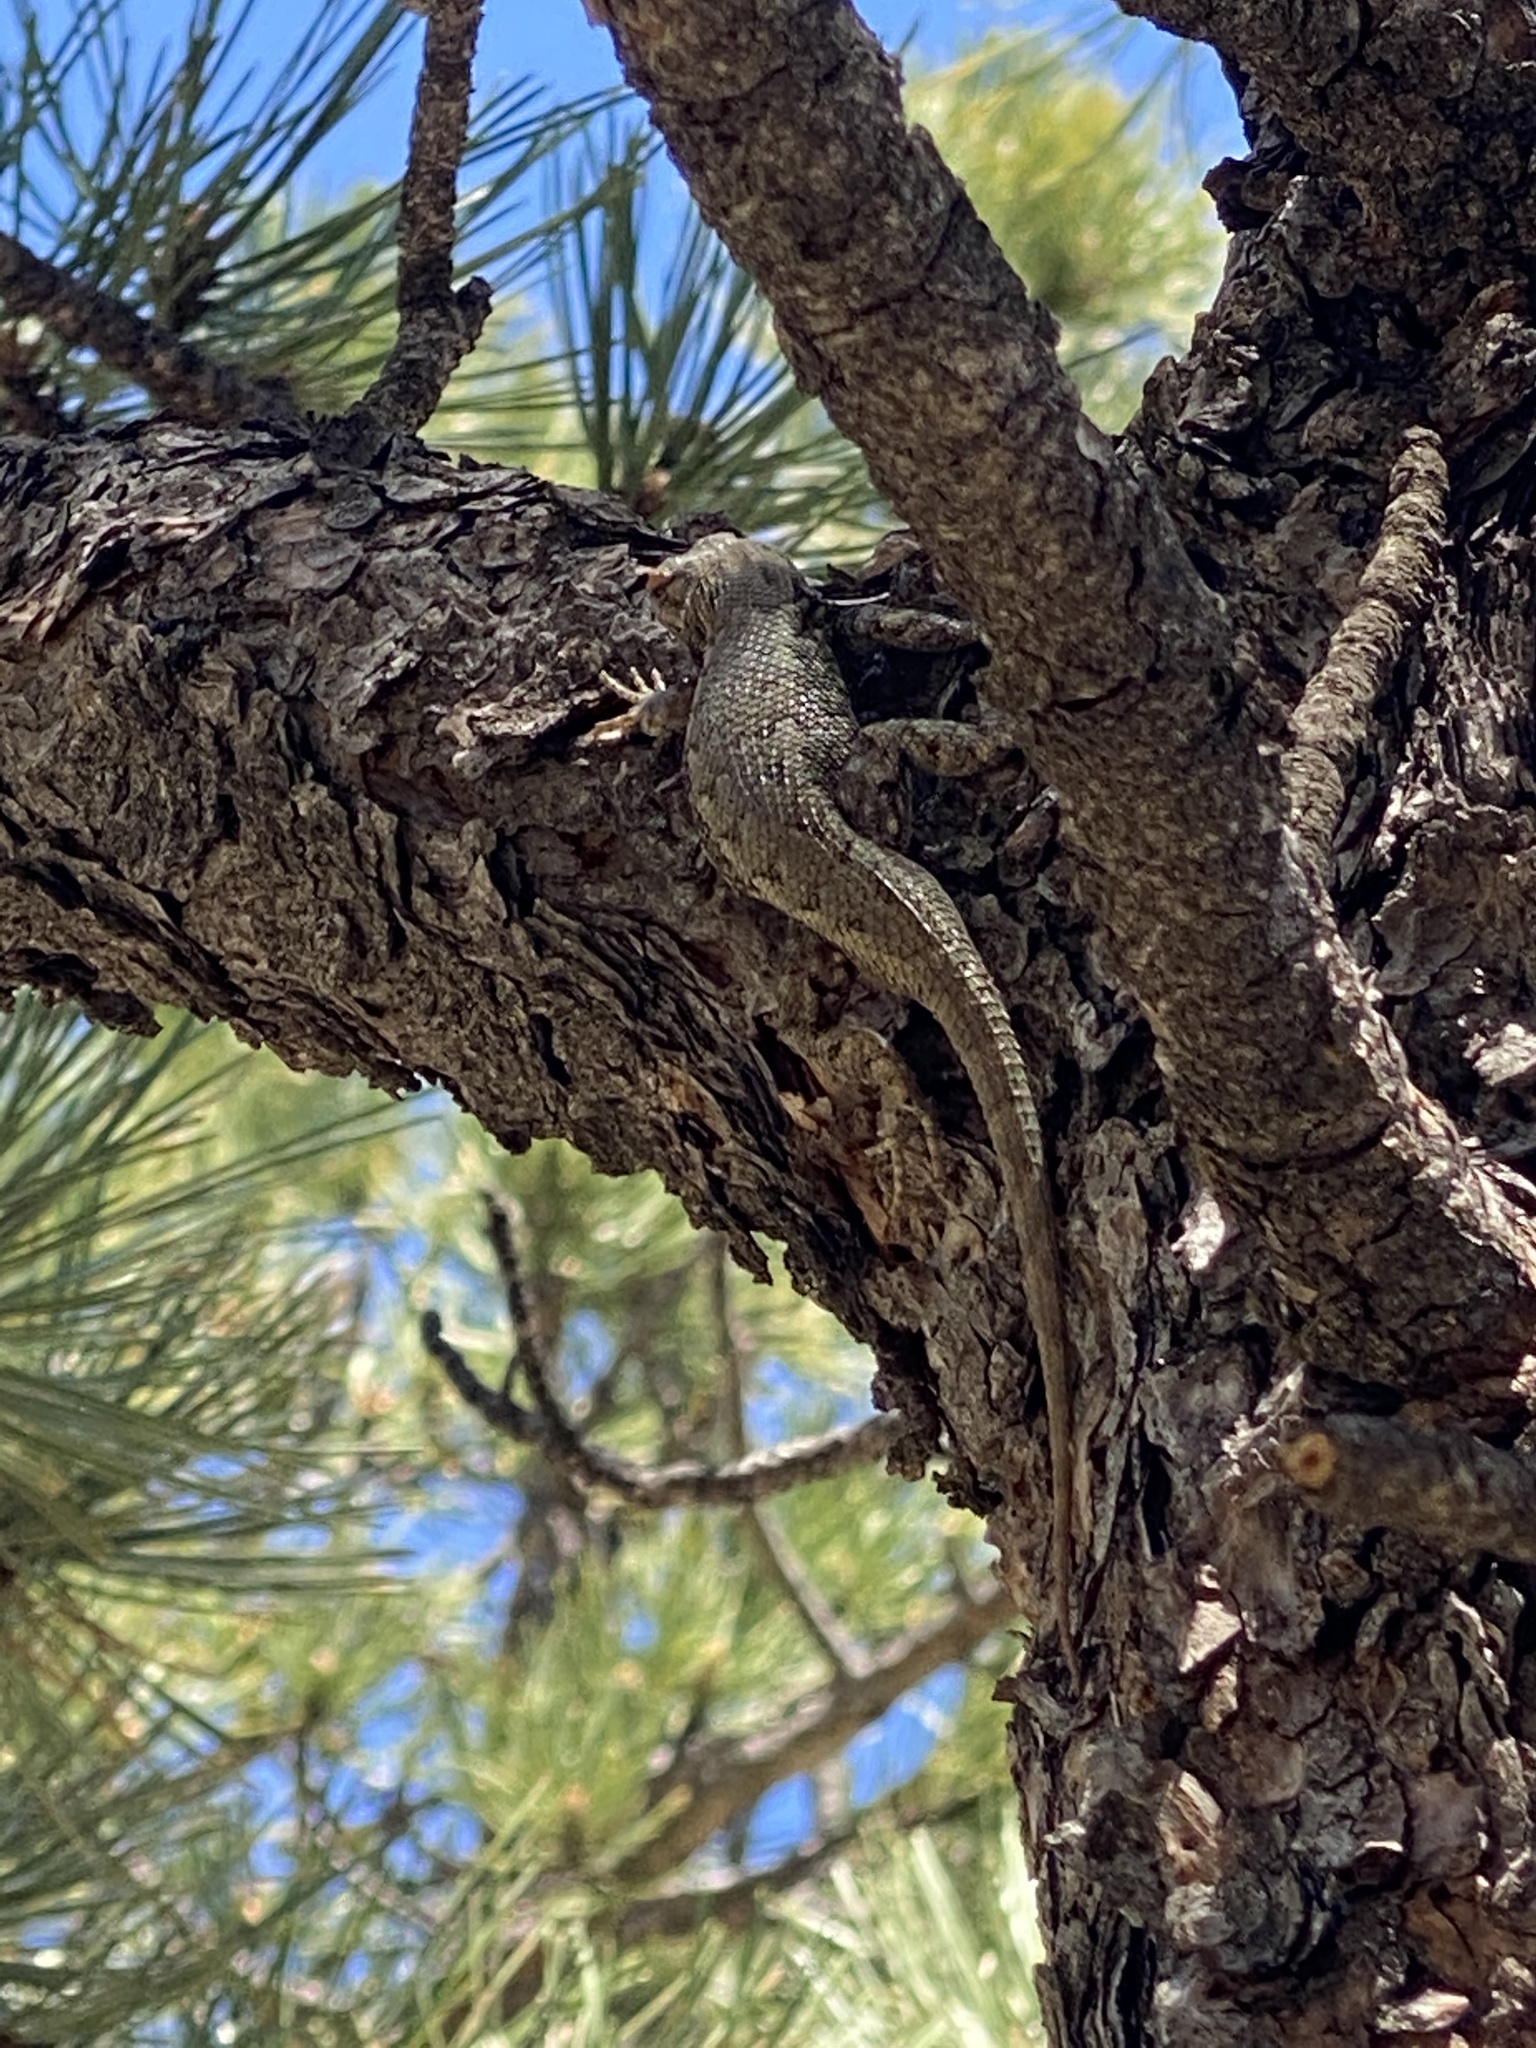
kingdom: Animalia
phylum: Chordata
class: Squamata
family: Phrynosomatidae
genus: Sceloporus
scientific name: Sceloporus consobrinus
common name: Southern prairie lizard
